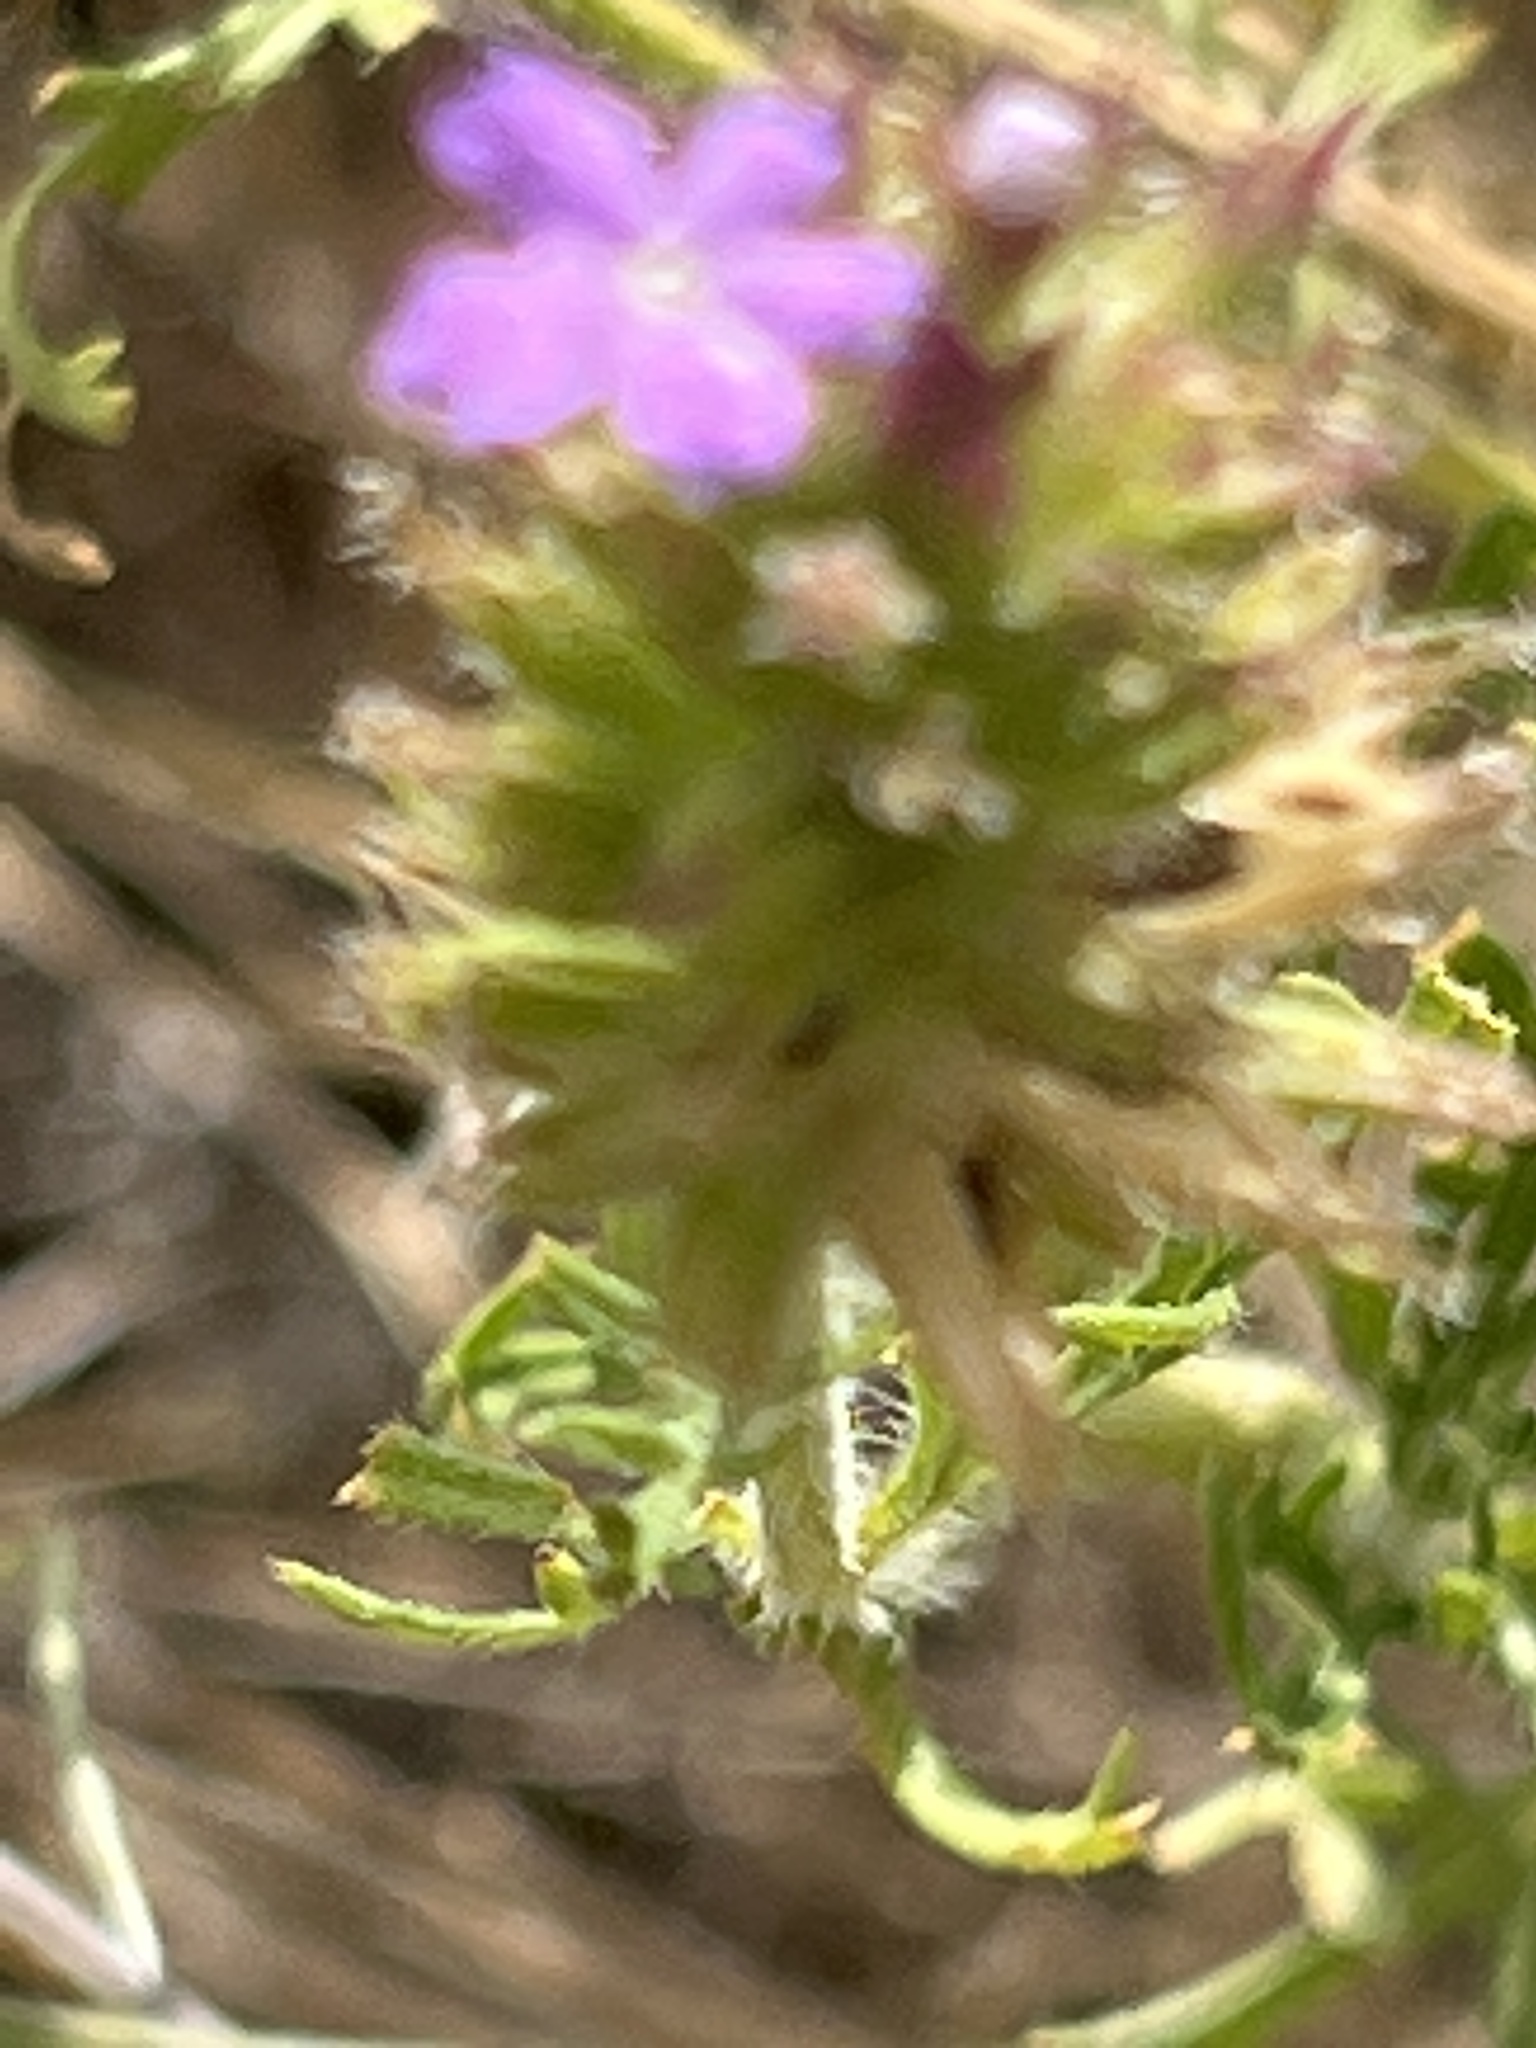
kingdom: Plantae
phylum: Tracheophyta
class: Magnoliopsida
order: Lamiales
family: Verbenaceae
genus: Verbena
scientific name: Verbena bipinnatifida
